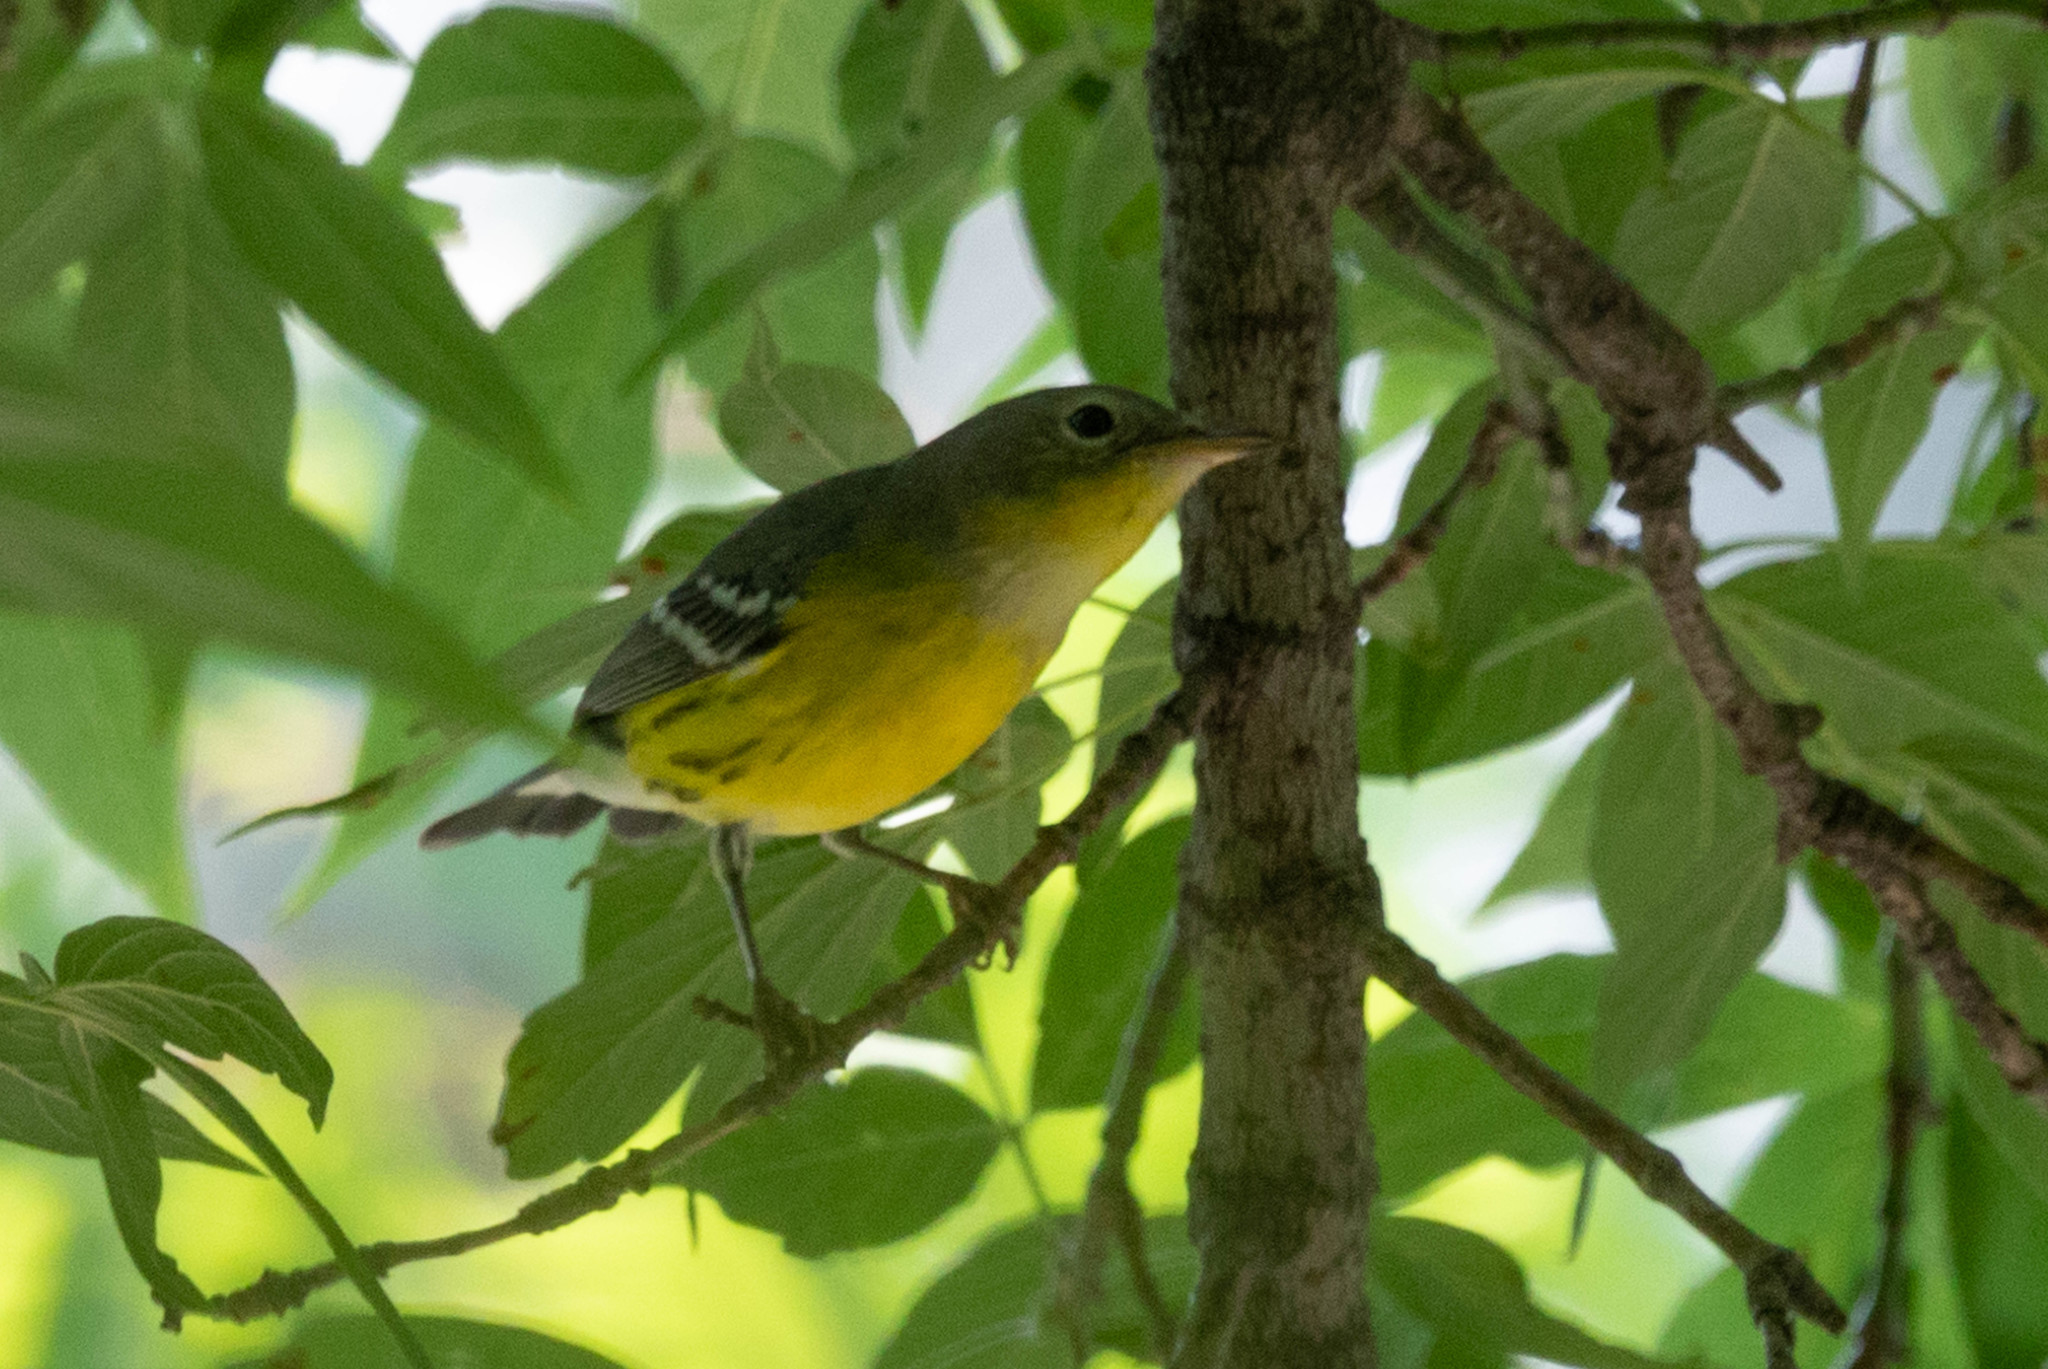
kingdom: Animalia
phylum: Chordata
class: Aves
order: Passeriformes
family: Parulidae
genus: Setophaga
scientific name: Setophaga magnolia
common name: Magnolia warbler
